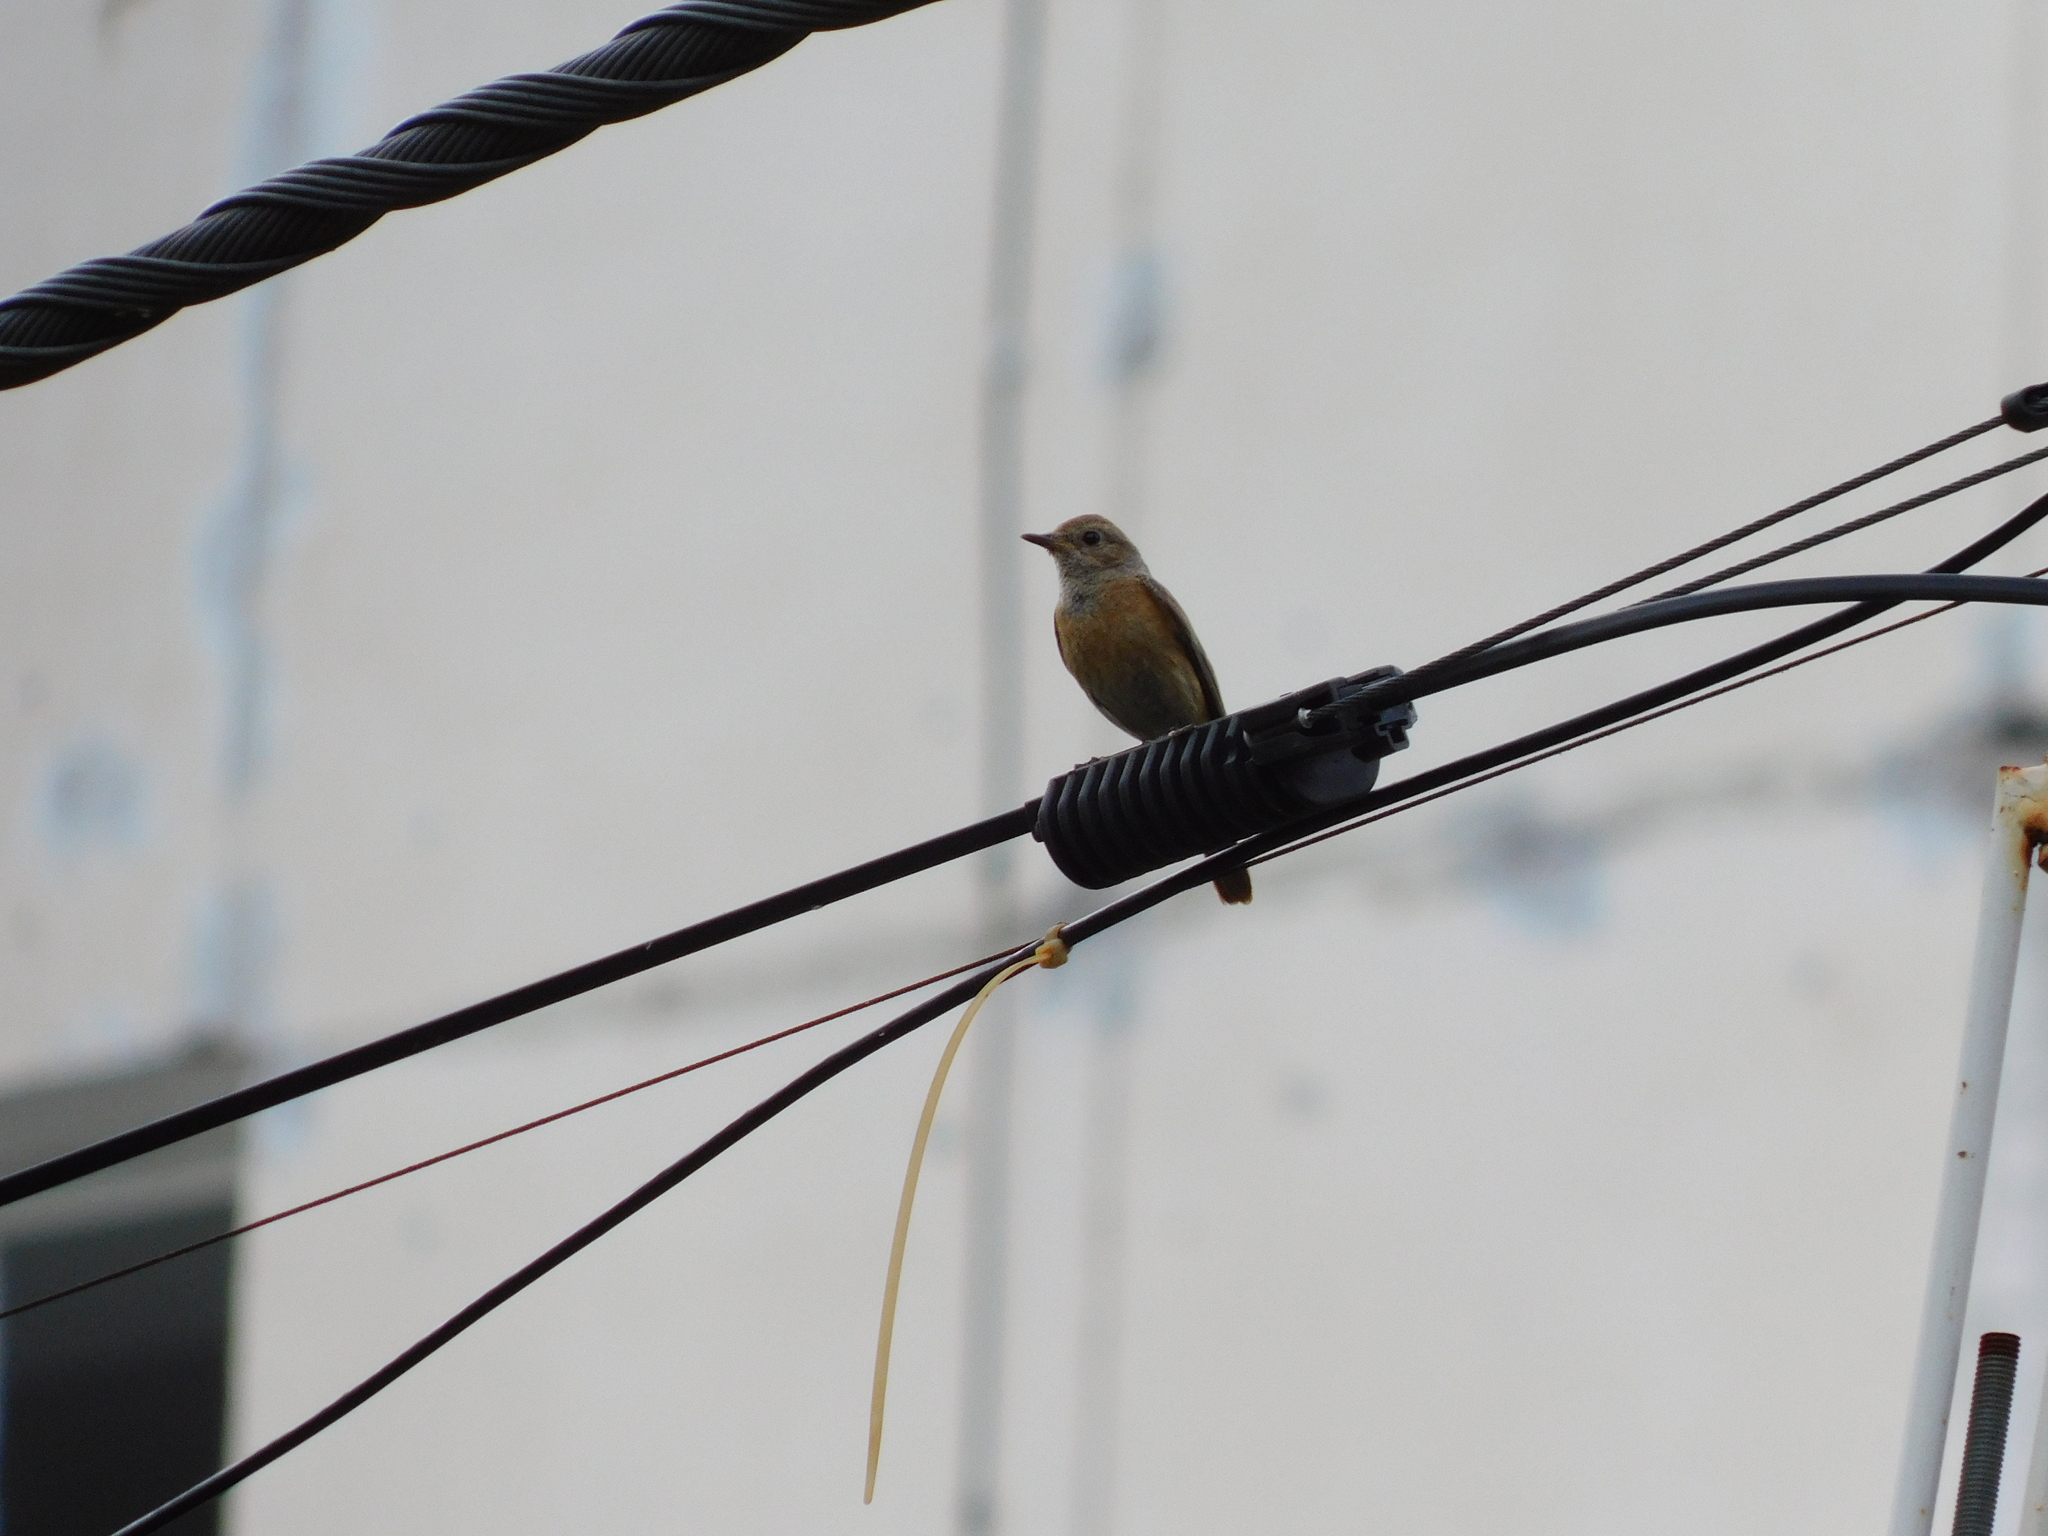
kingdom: Animalia
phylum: Chordata
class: Aves
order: Passeriformes
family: Muscicapidae
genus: Phoenicurus
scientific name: Phoenicurus phoenicurus
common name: Common redstart
